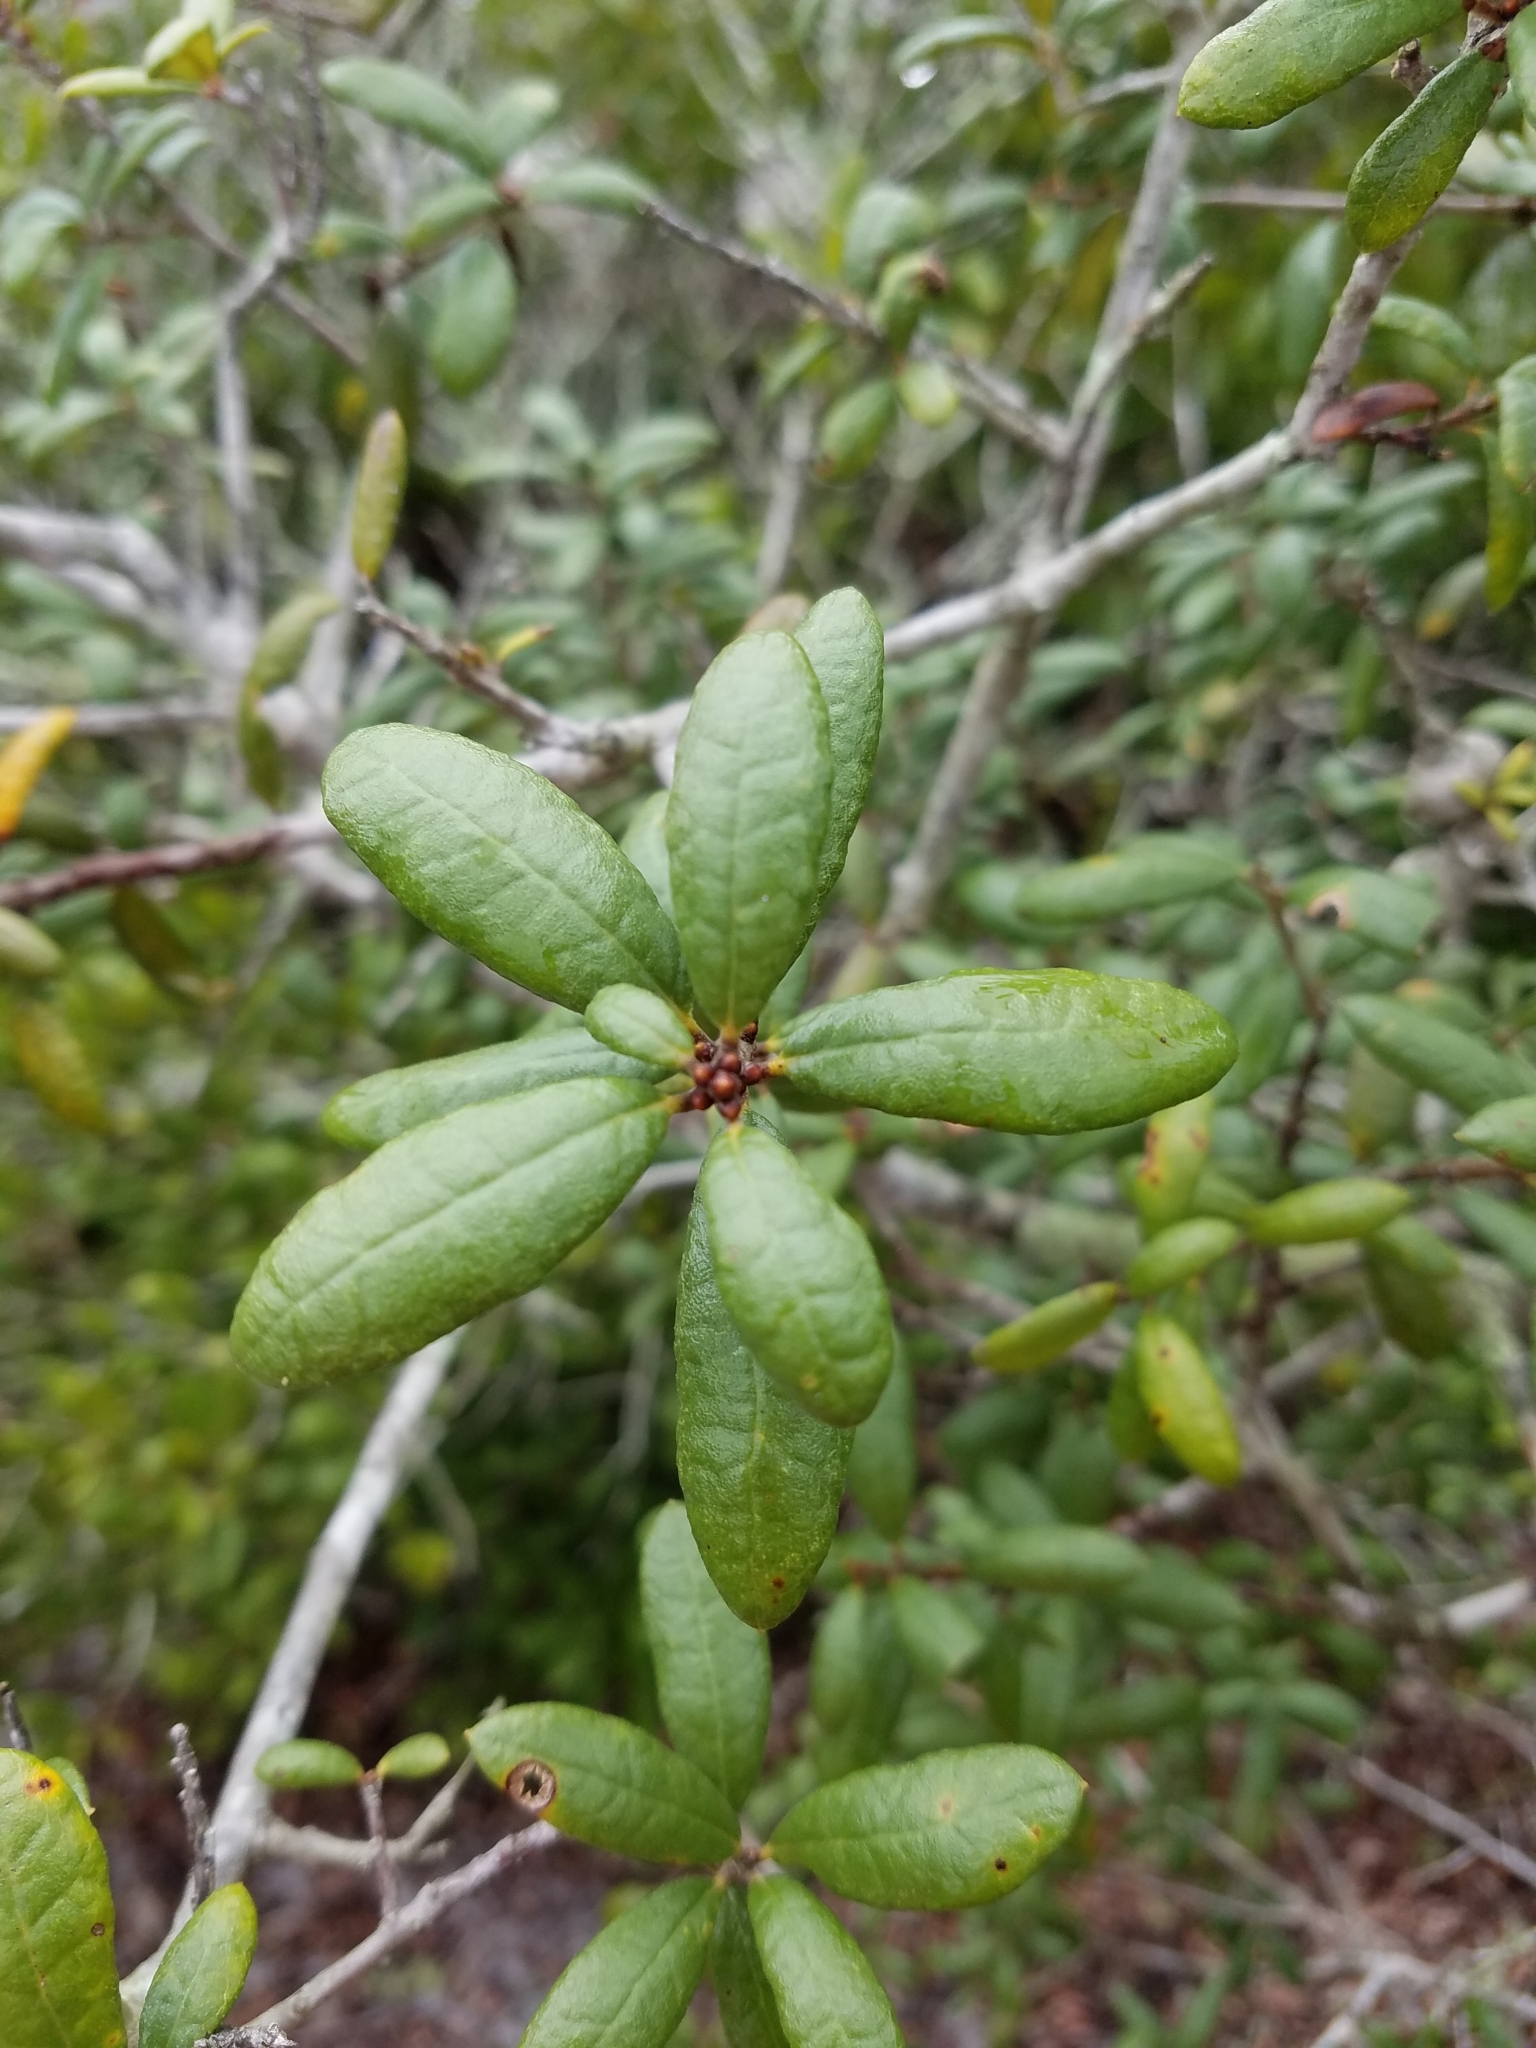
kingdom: Plantae
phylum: Tracheophyta
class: Magnoliopsida
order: Fagales
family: Fagaceae
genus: Quercus
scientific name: Quercus geminata
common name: Sand live oak
